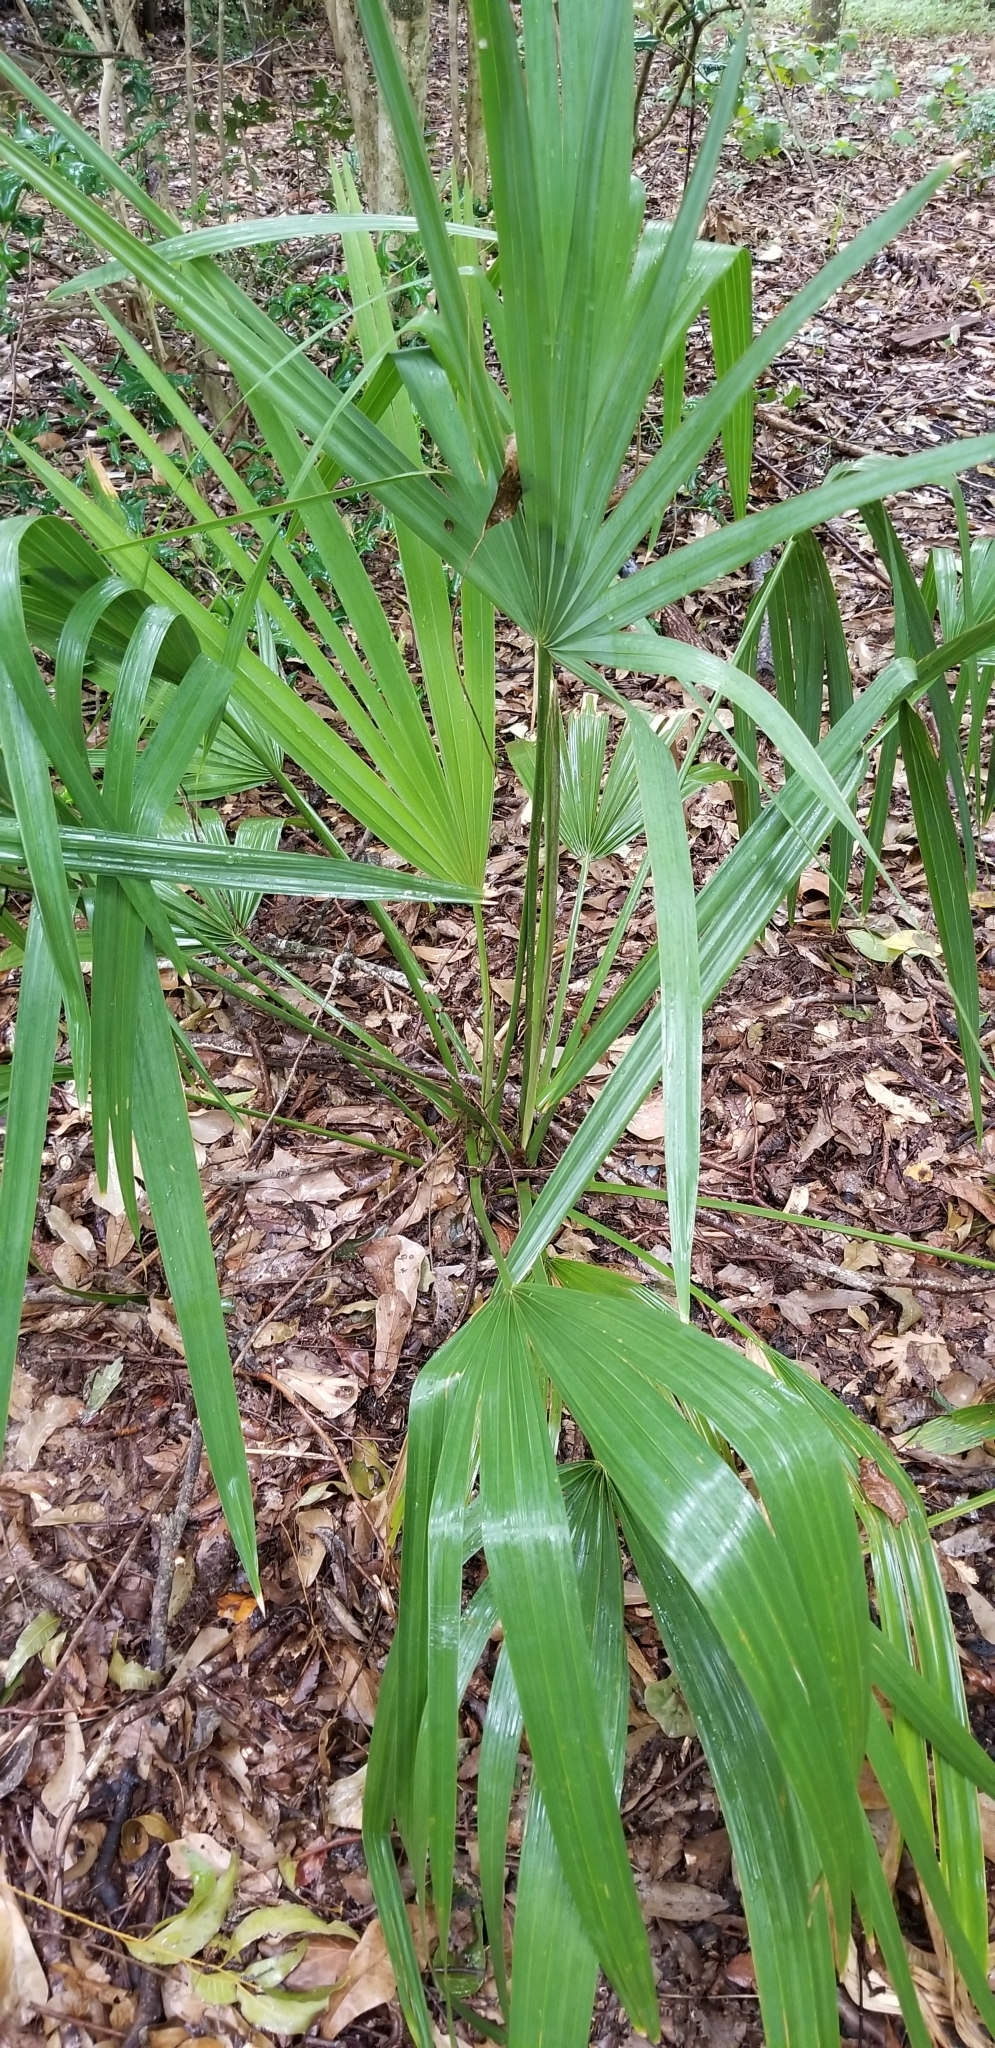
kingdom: Plantae
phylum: Tracheophyta
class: Liliopsida
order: Arecales
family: Arecaceae
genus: Sabal
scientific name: Sabal minor
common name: Dwarf palmetto
